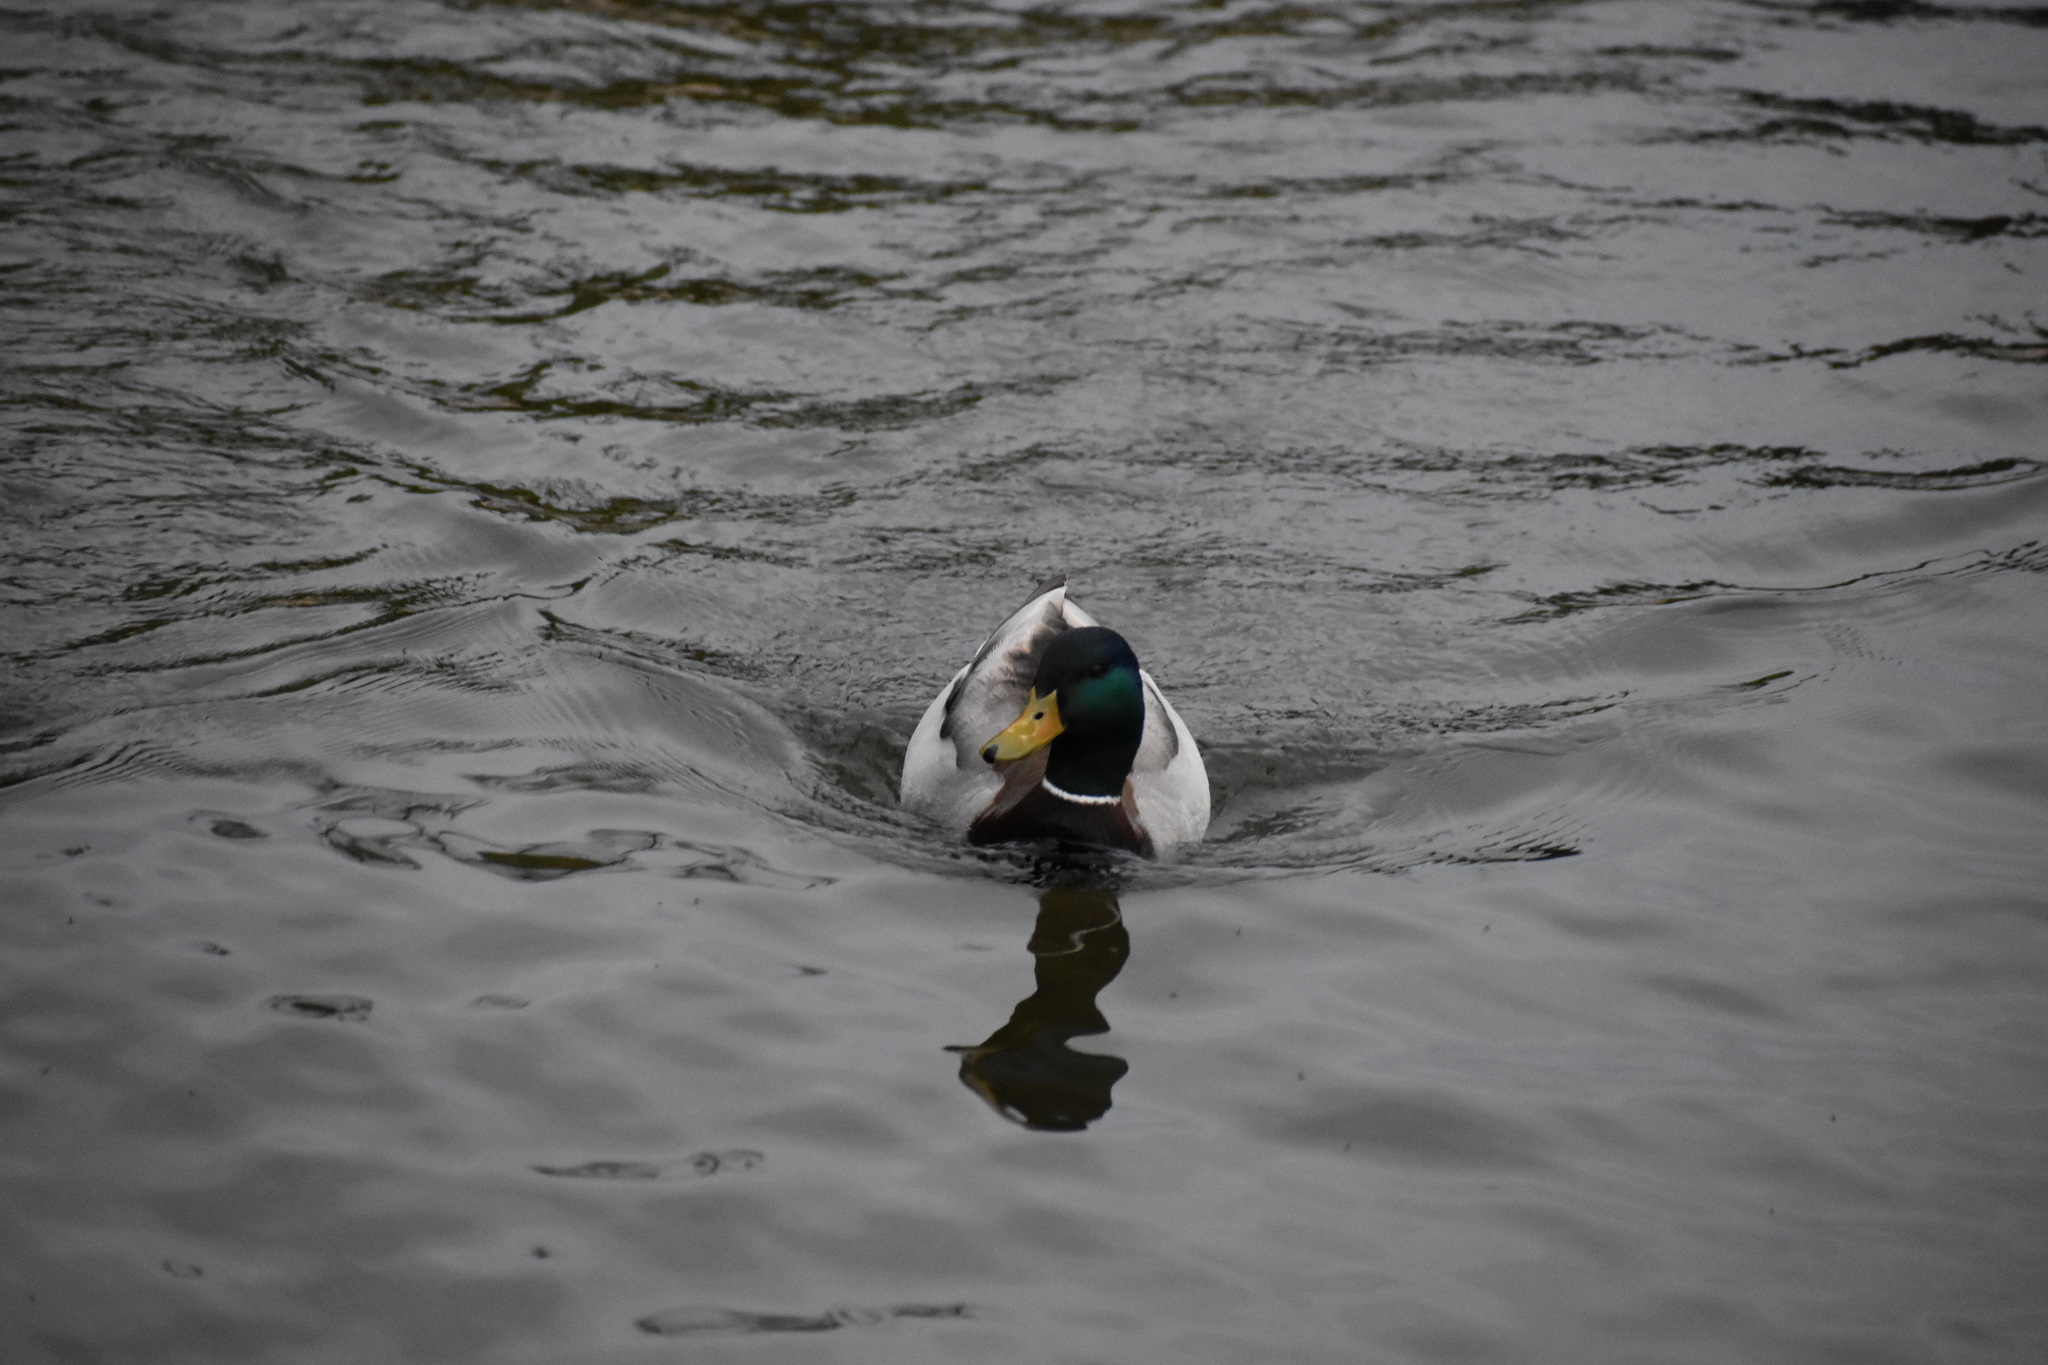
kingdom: Animalia
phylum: Chordata
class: Aves
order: Anseriformes
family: Anatidae
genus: Anas
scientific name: Anas platyrhynchos
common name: Mallard
